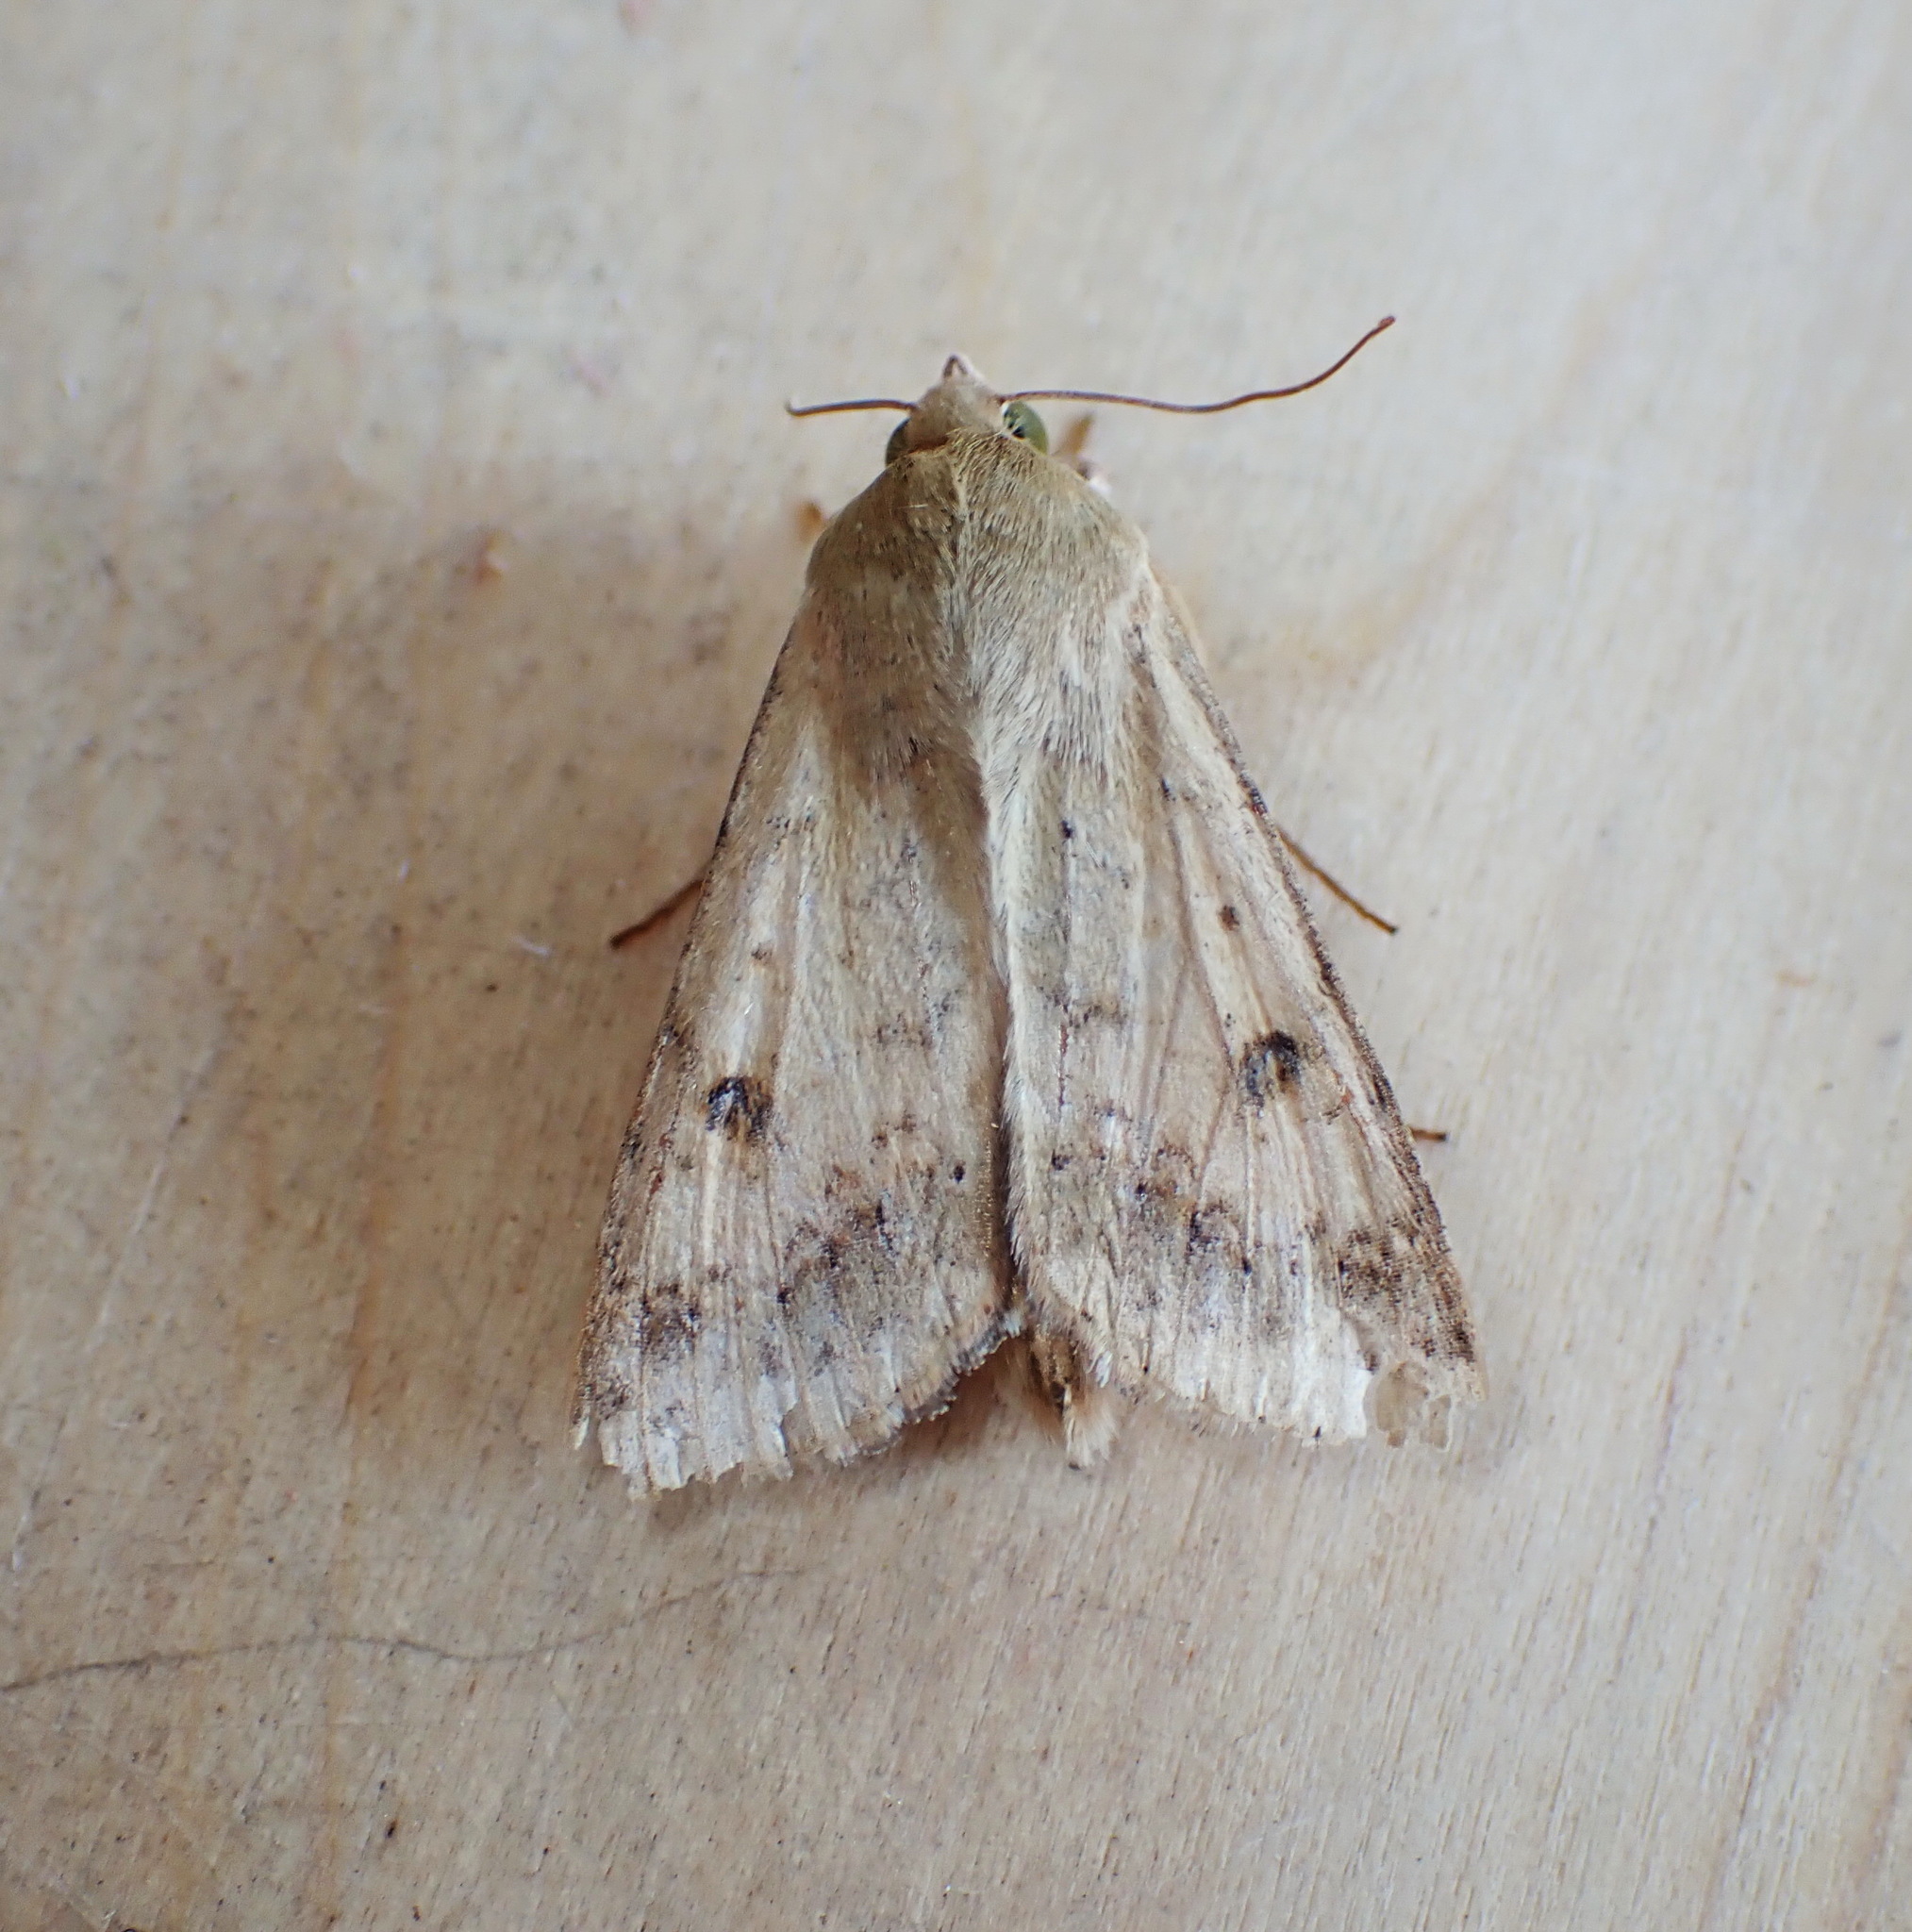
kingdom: Animalia
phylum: Arthropoda
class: Insecta
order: Lepidoptera
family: Noctuidae
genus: Helicoverpa
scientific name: Helicoverpa zea
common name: Bollworm
